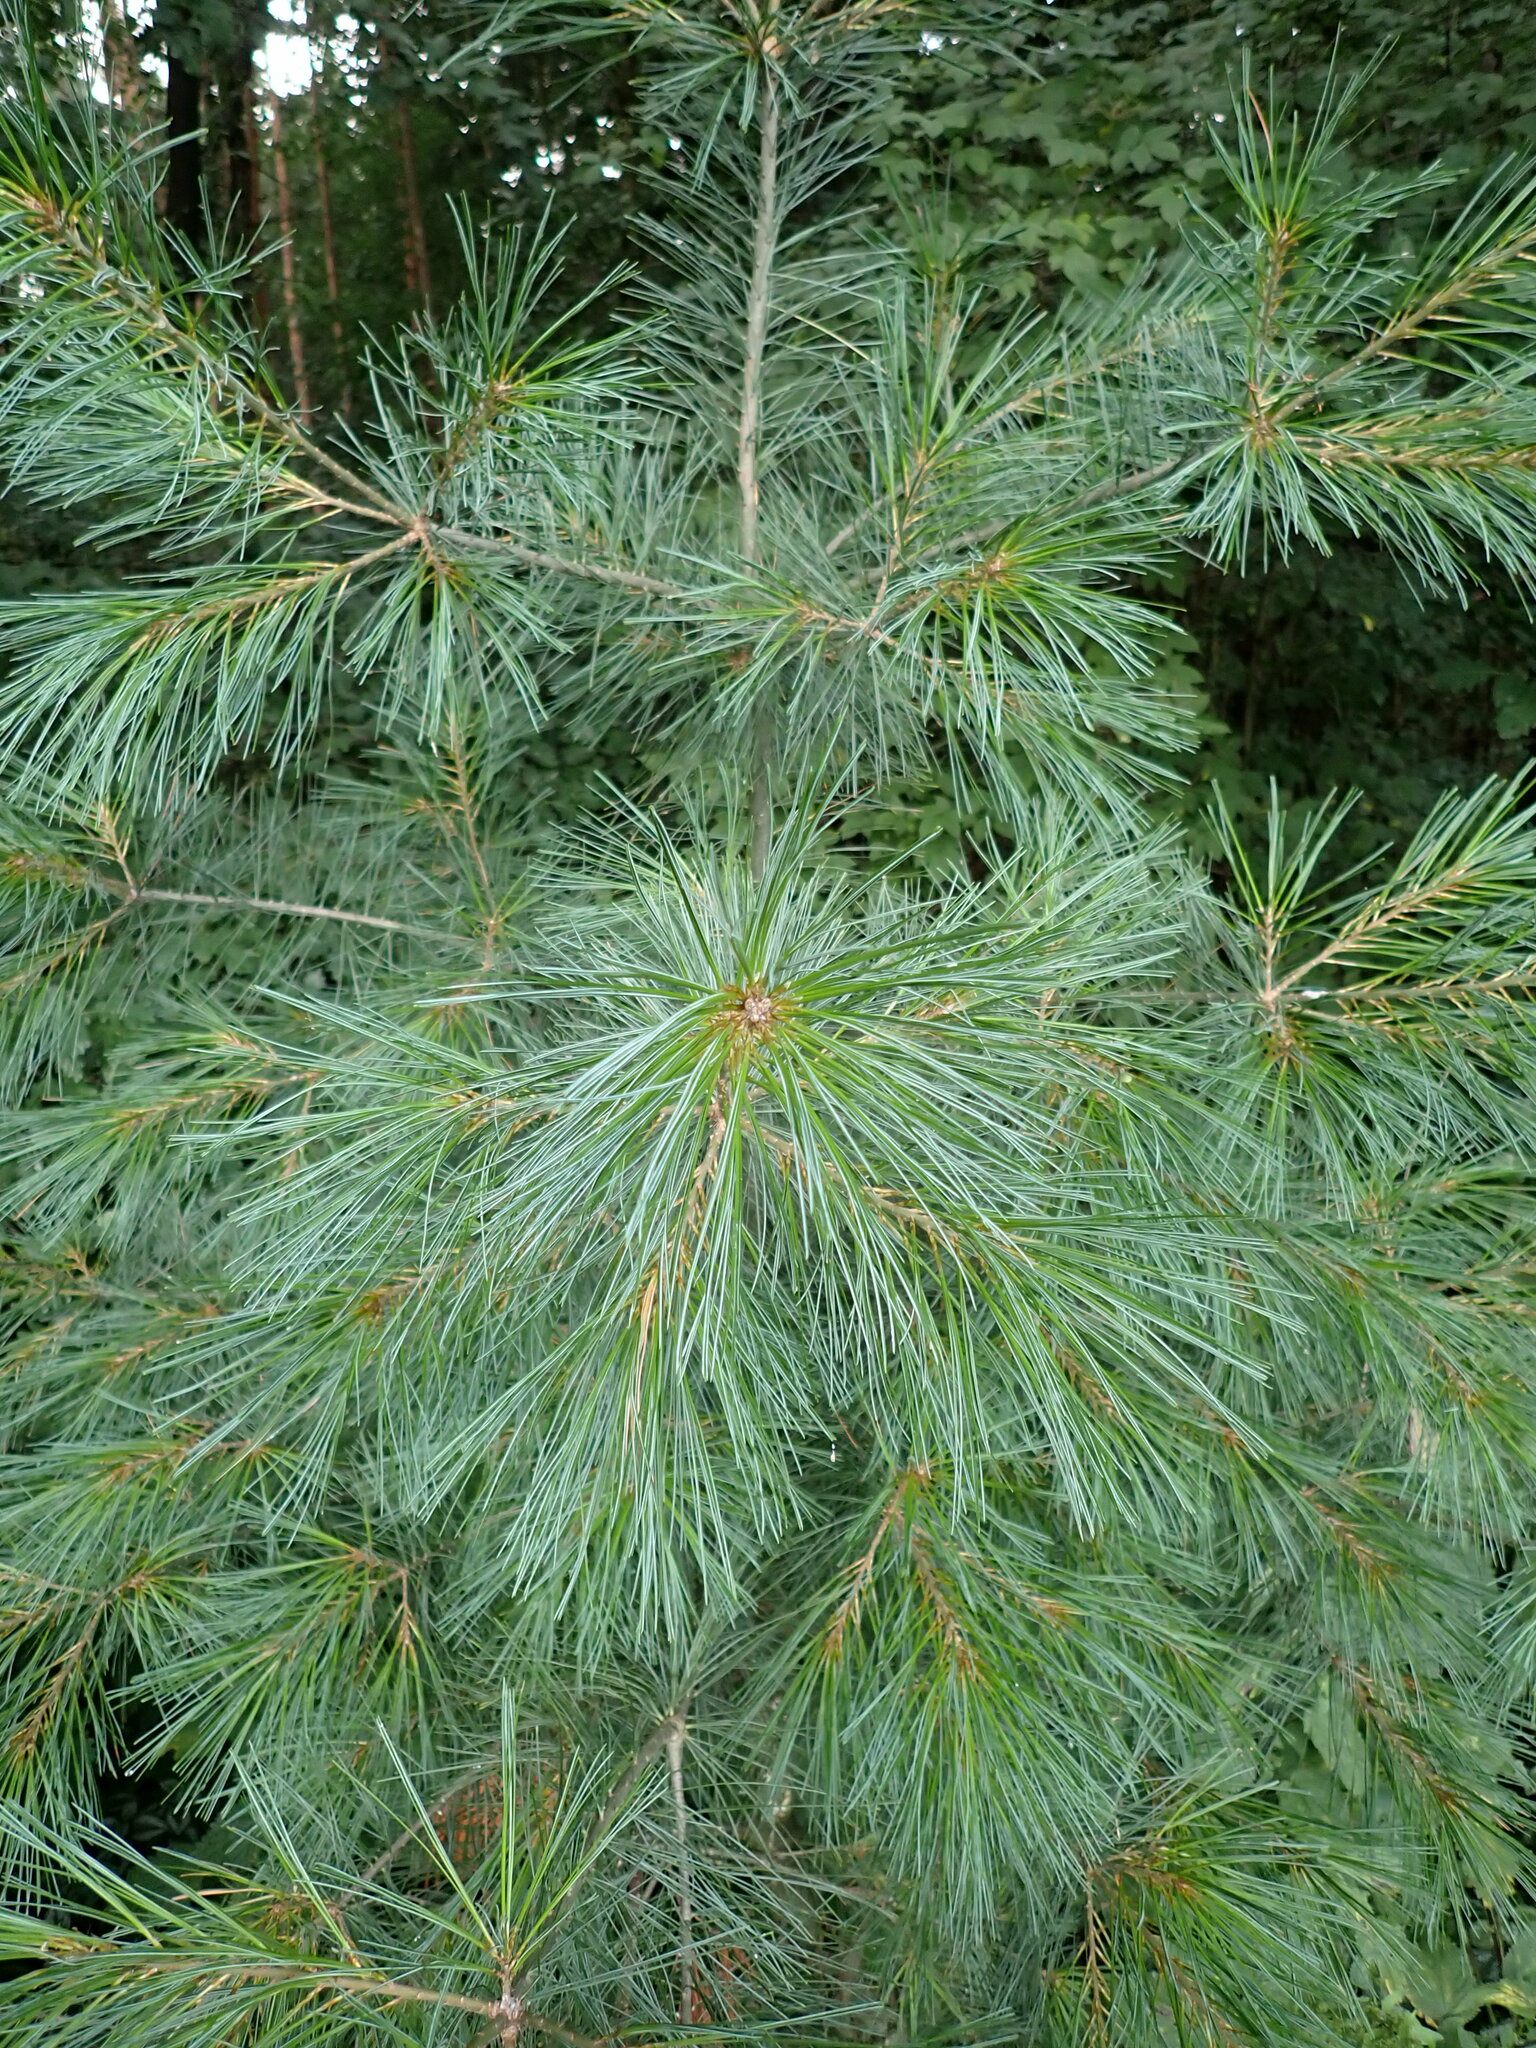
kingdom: Plantae
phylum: Tracheophyta
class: Pinopsida
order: Pinales
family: Pinaceae
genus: Pinus
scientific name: Pinus strobus
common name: Weymouth pine
